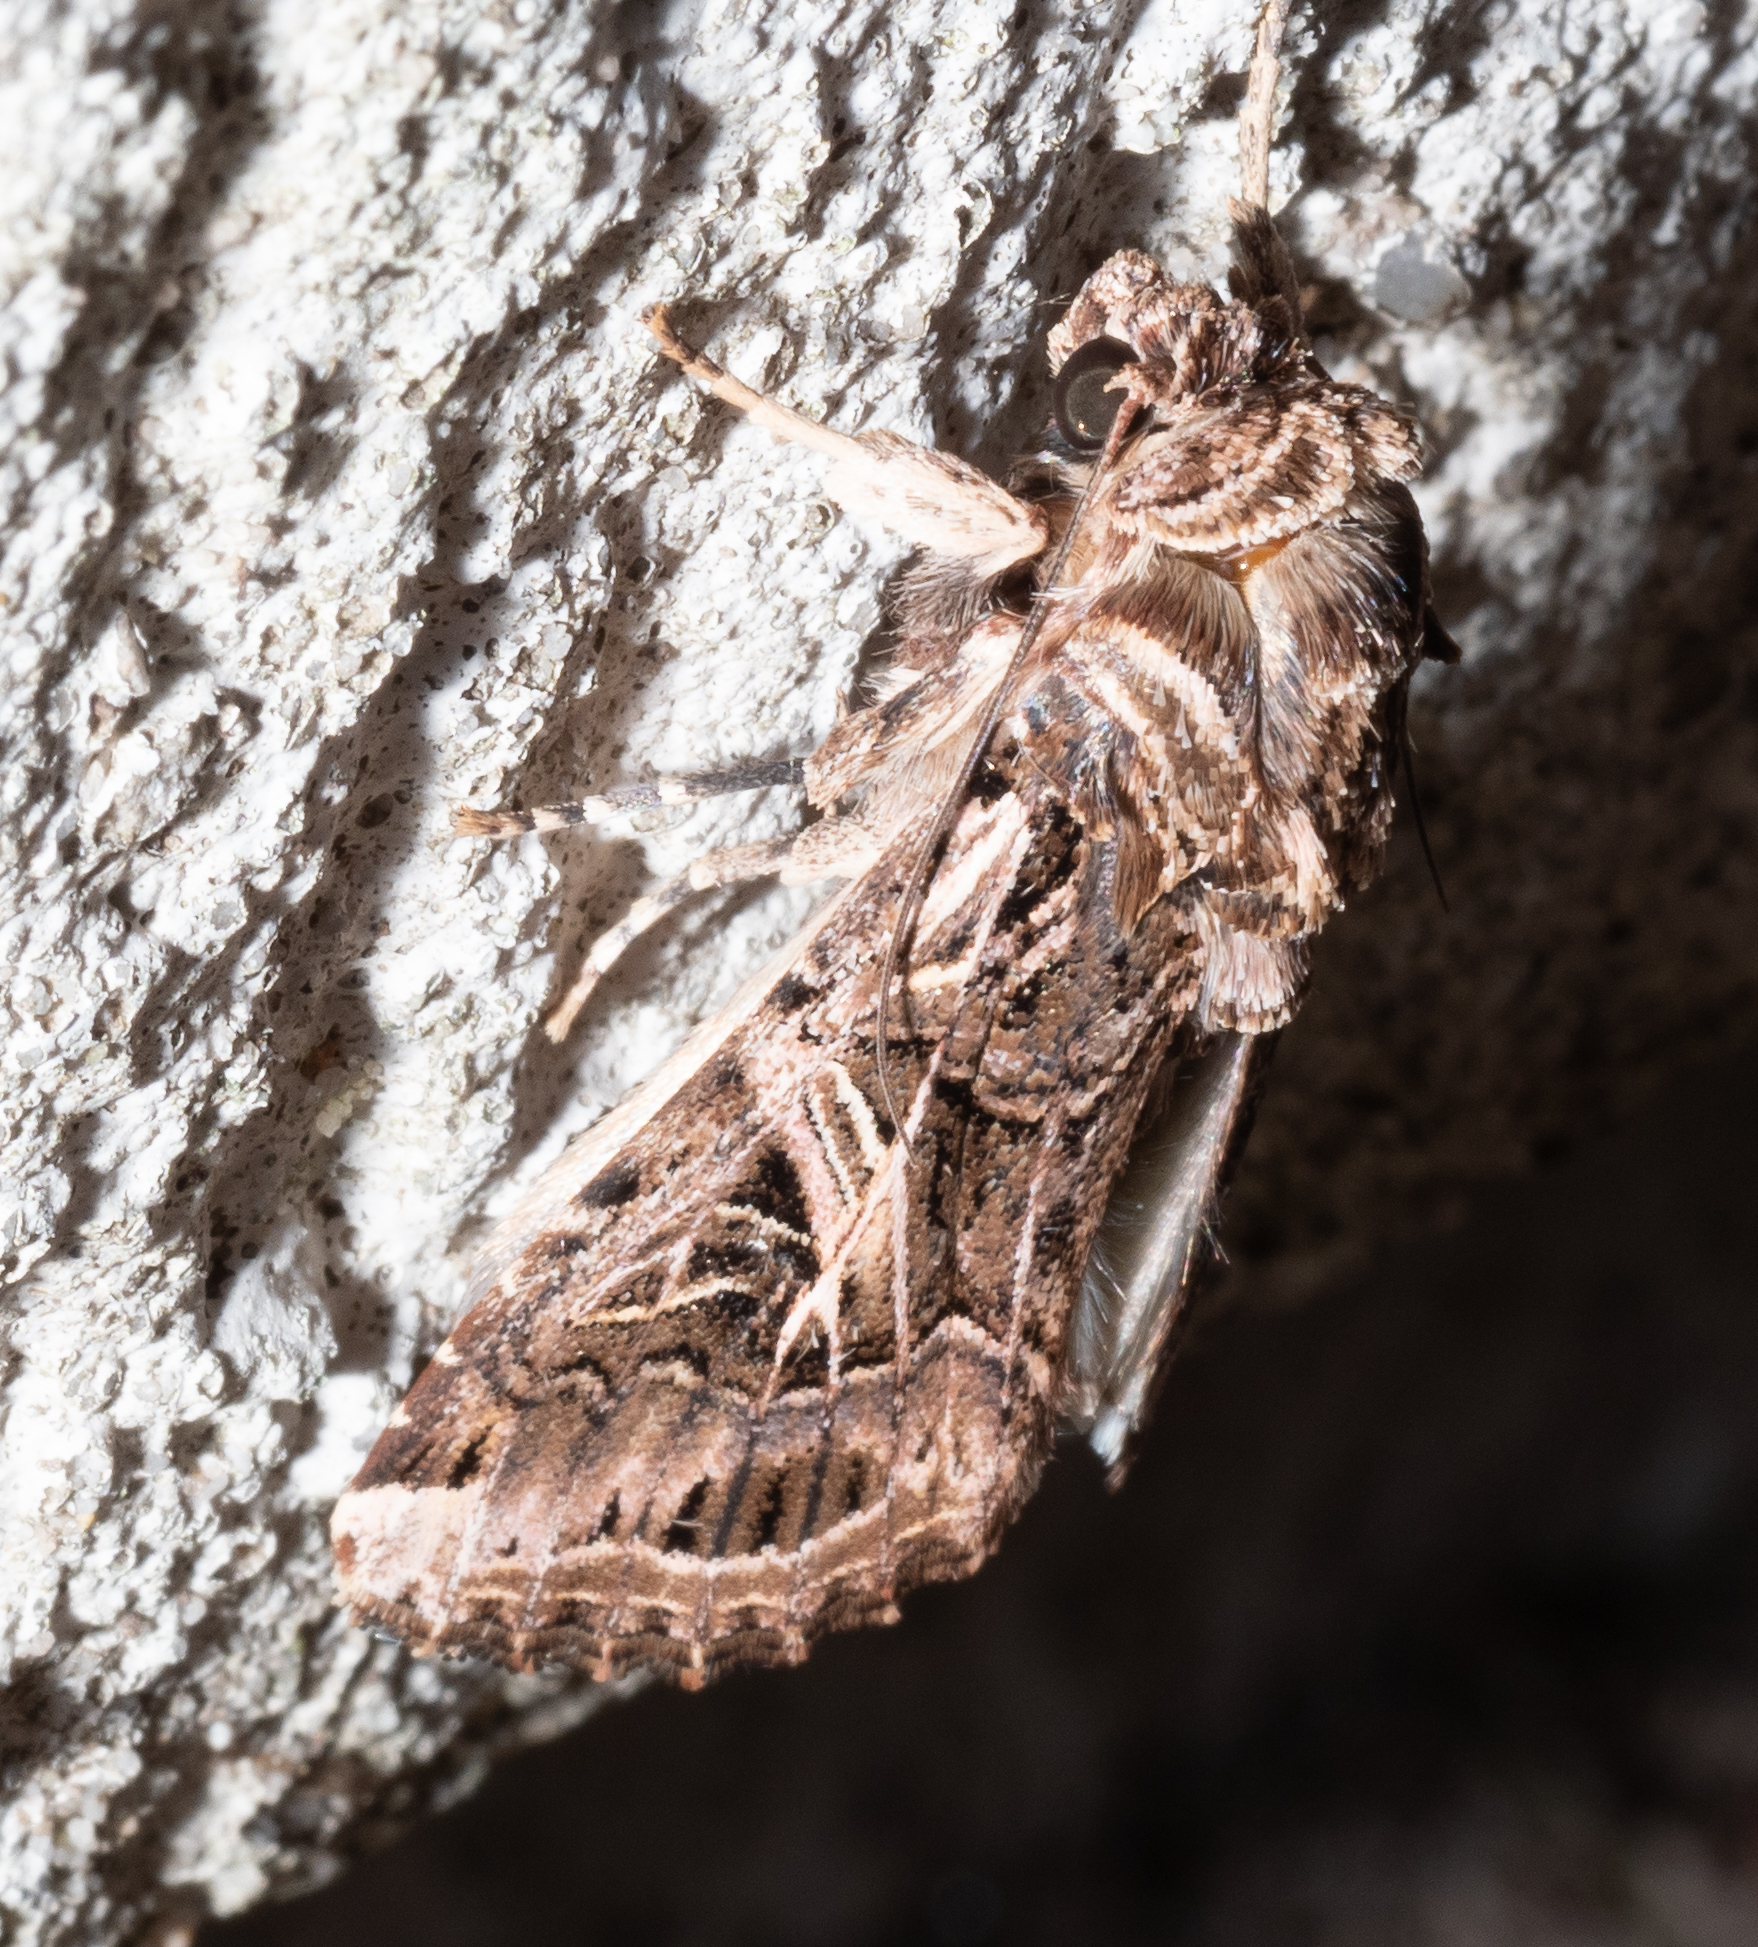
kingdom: Animalia
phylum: Arthropoda
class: Insecta
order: Lepidoptera
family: Noctuidae
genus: Spodoptera
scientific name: Spodoptera litura
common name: Asian cotton leafworm
